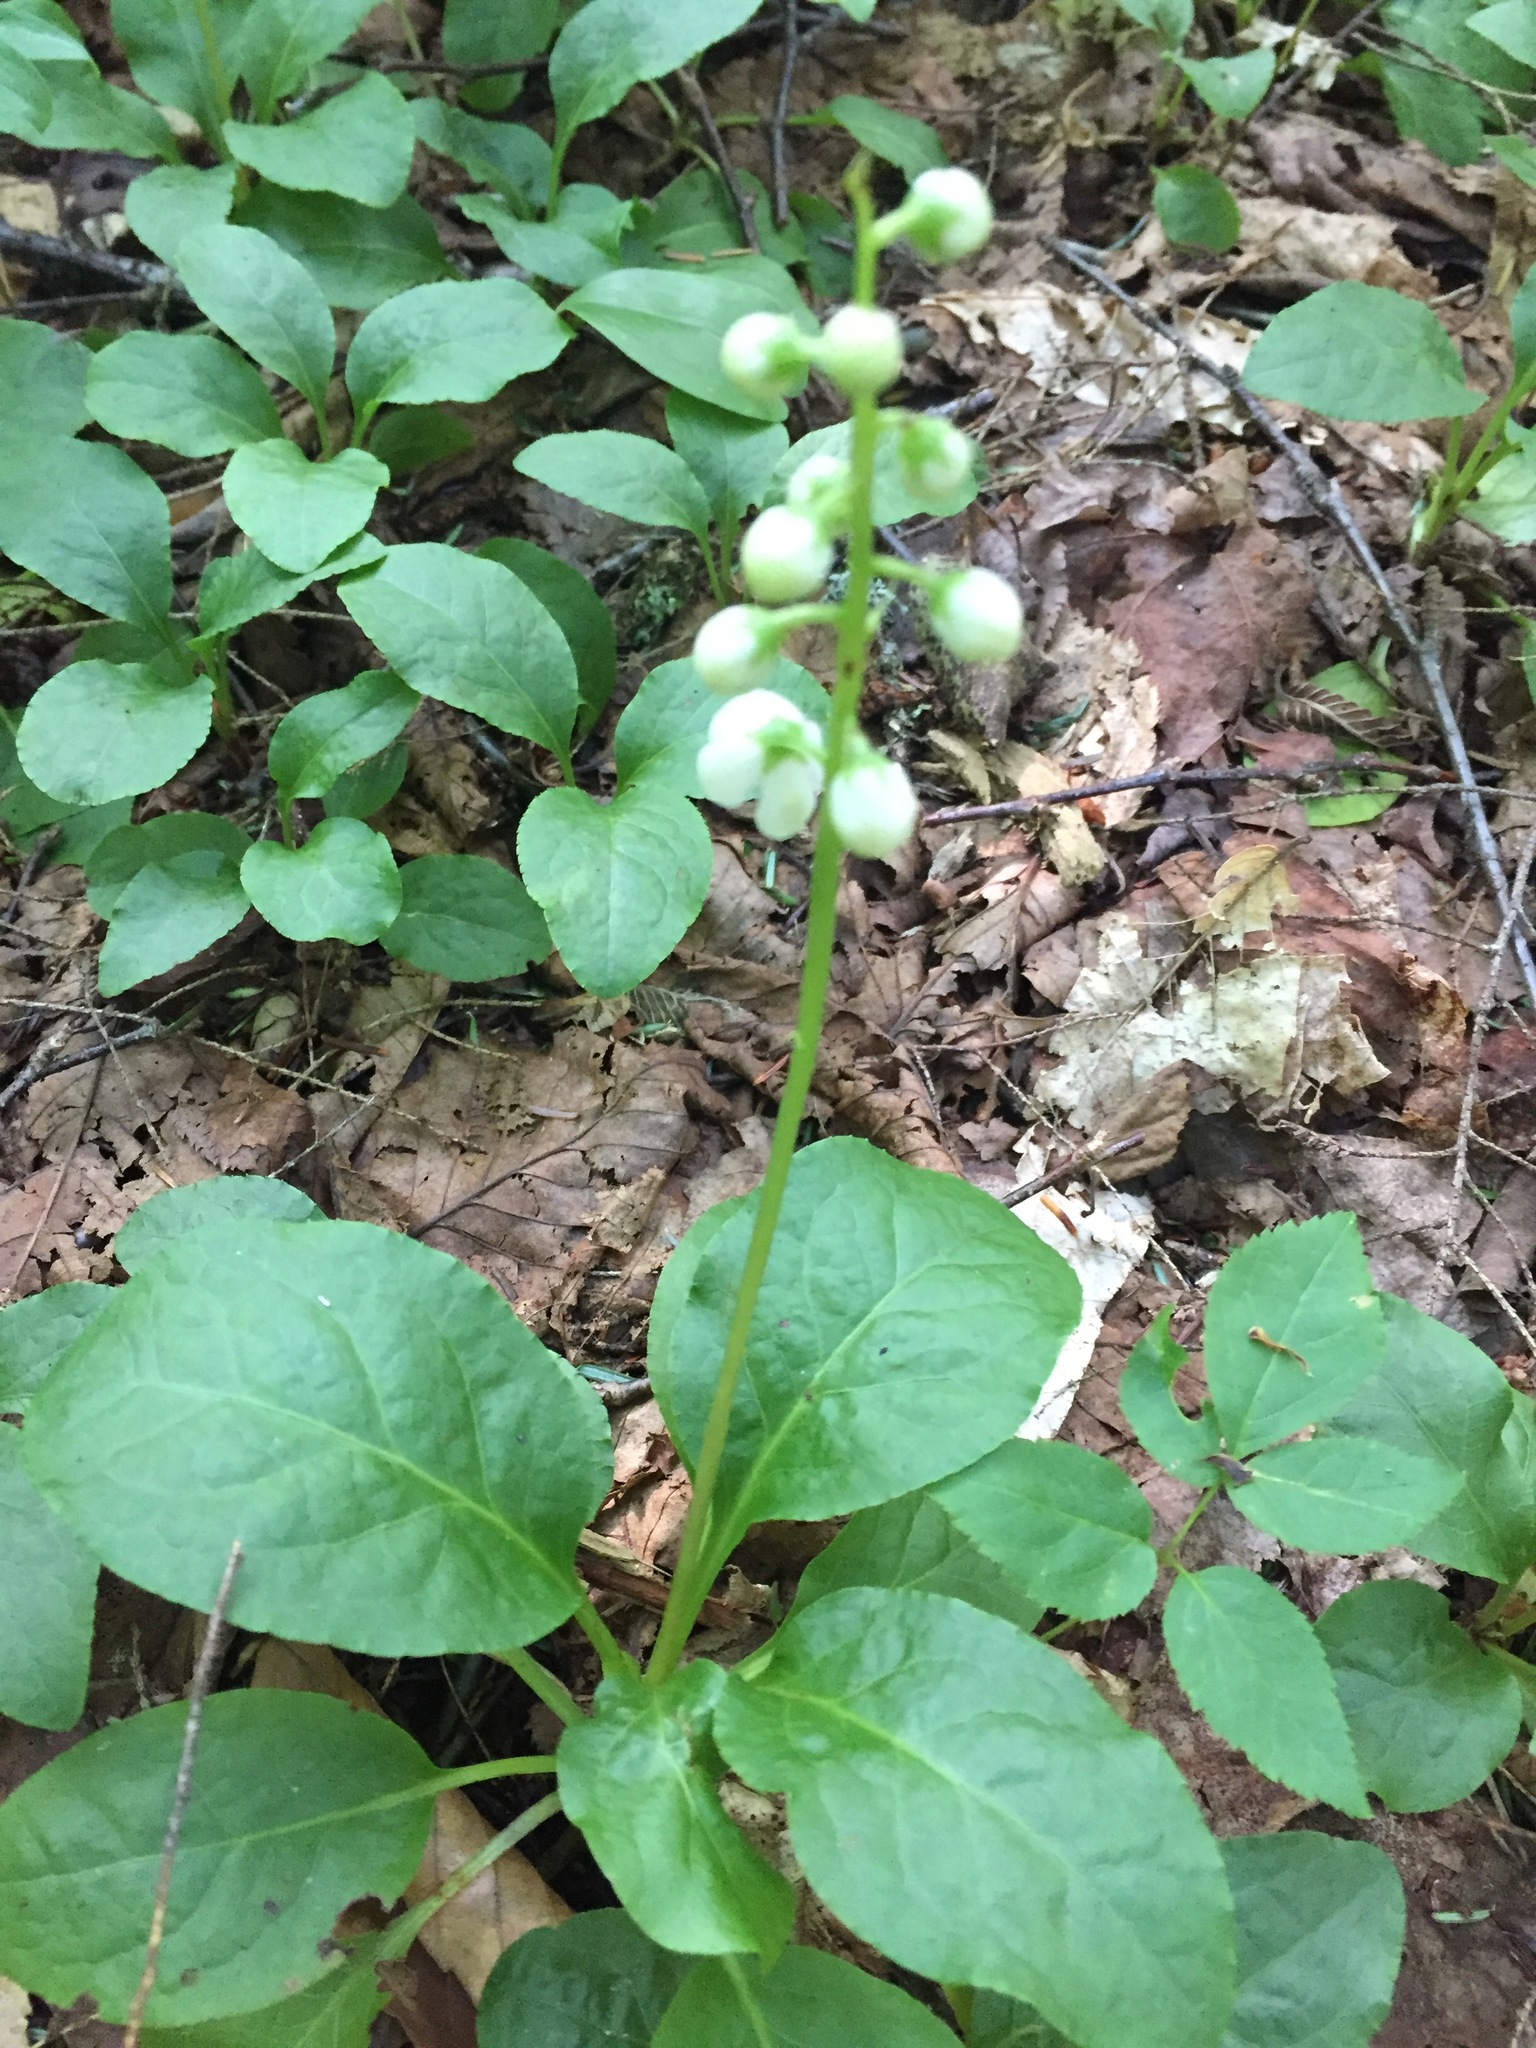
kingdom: Plantae
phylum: Tracheophyta
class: Magnoliopsida
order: Ericales
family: Ericaceae
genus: Pyrola
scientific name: Pyrola elliptica
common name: Shinleaf
